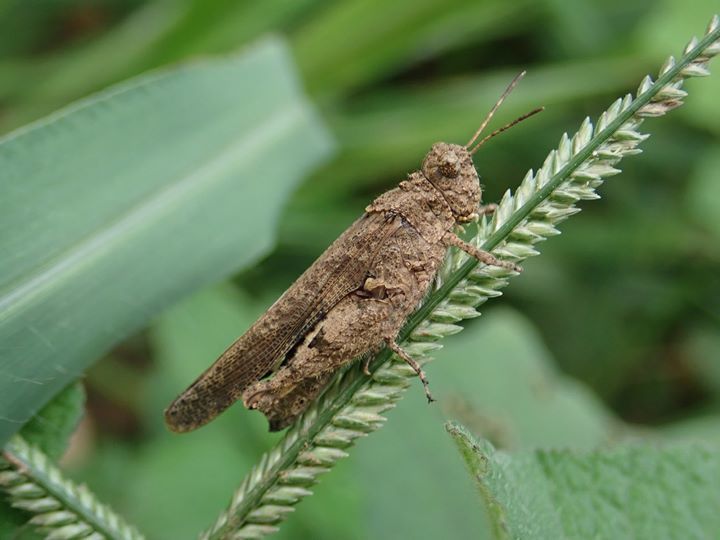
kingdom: Animalia
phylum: Arthropoda
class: Insecta
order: Orthoptera
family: Acrididae
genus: Trilophidia
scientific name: Trilophidia annulata
